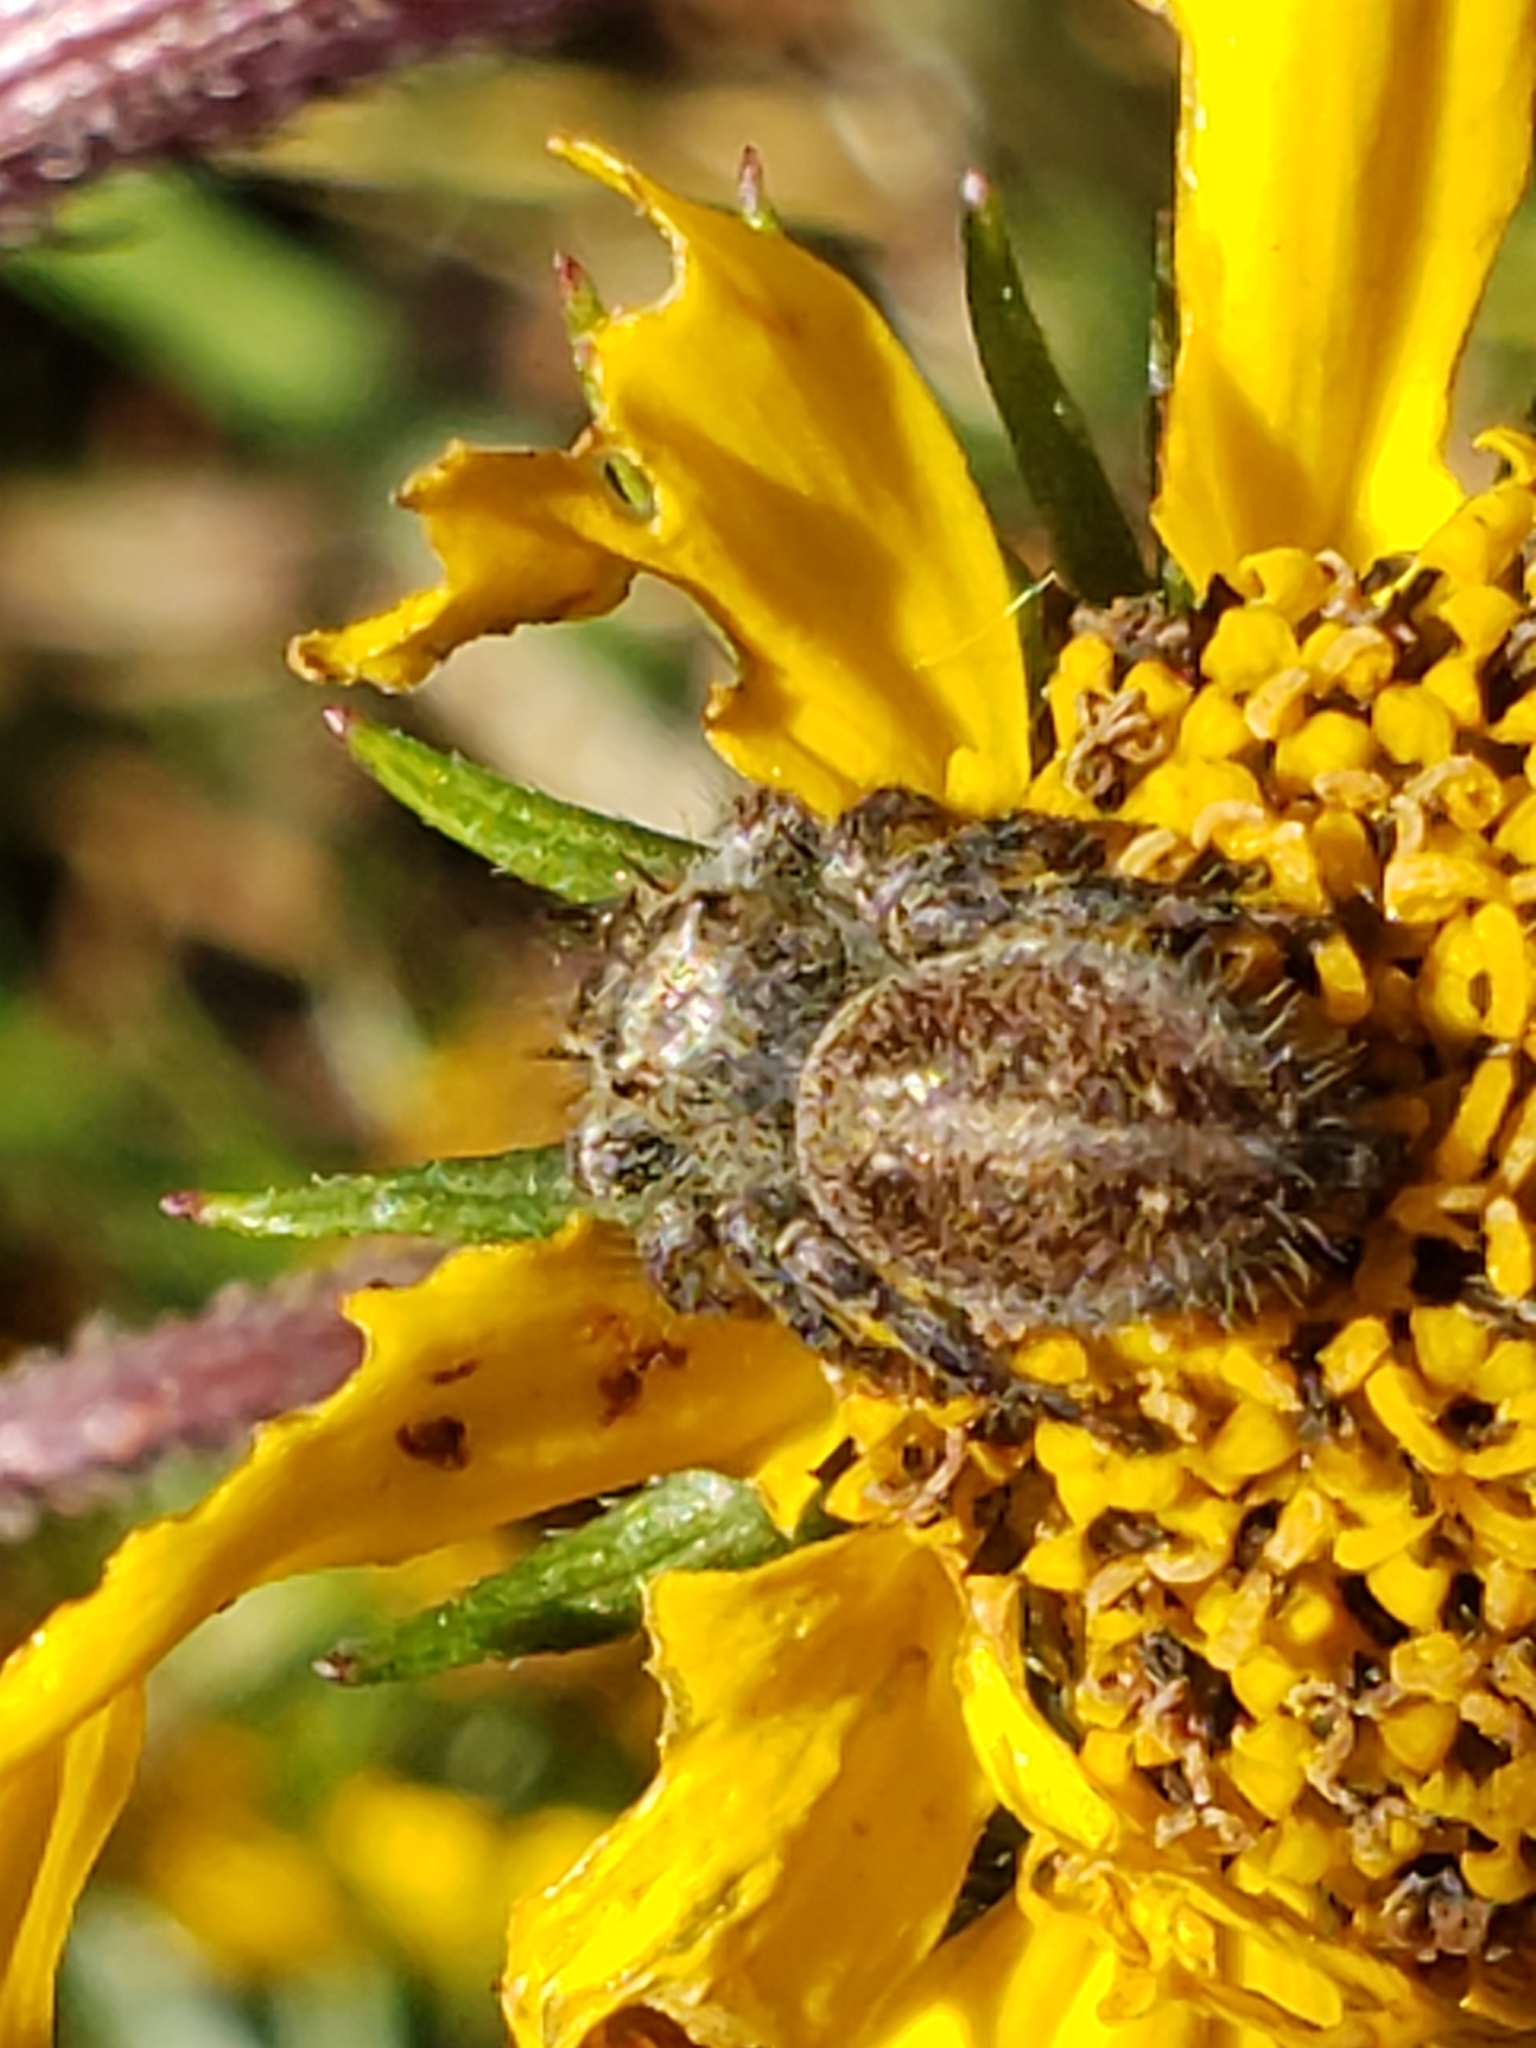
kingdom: Animalia
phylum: Arthropoda
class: Arachnida
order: Araneae
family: Salticidae
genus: Phidippus
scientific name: Phidippus princeps
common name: Grayish jumping spider
